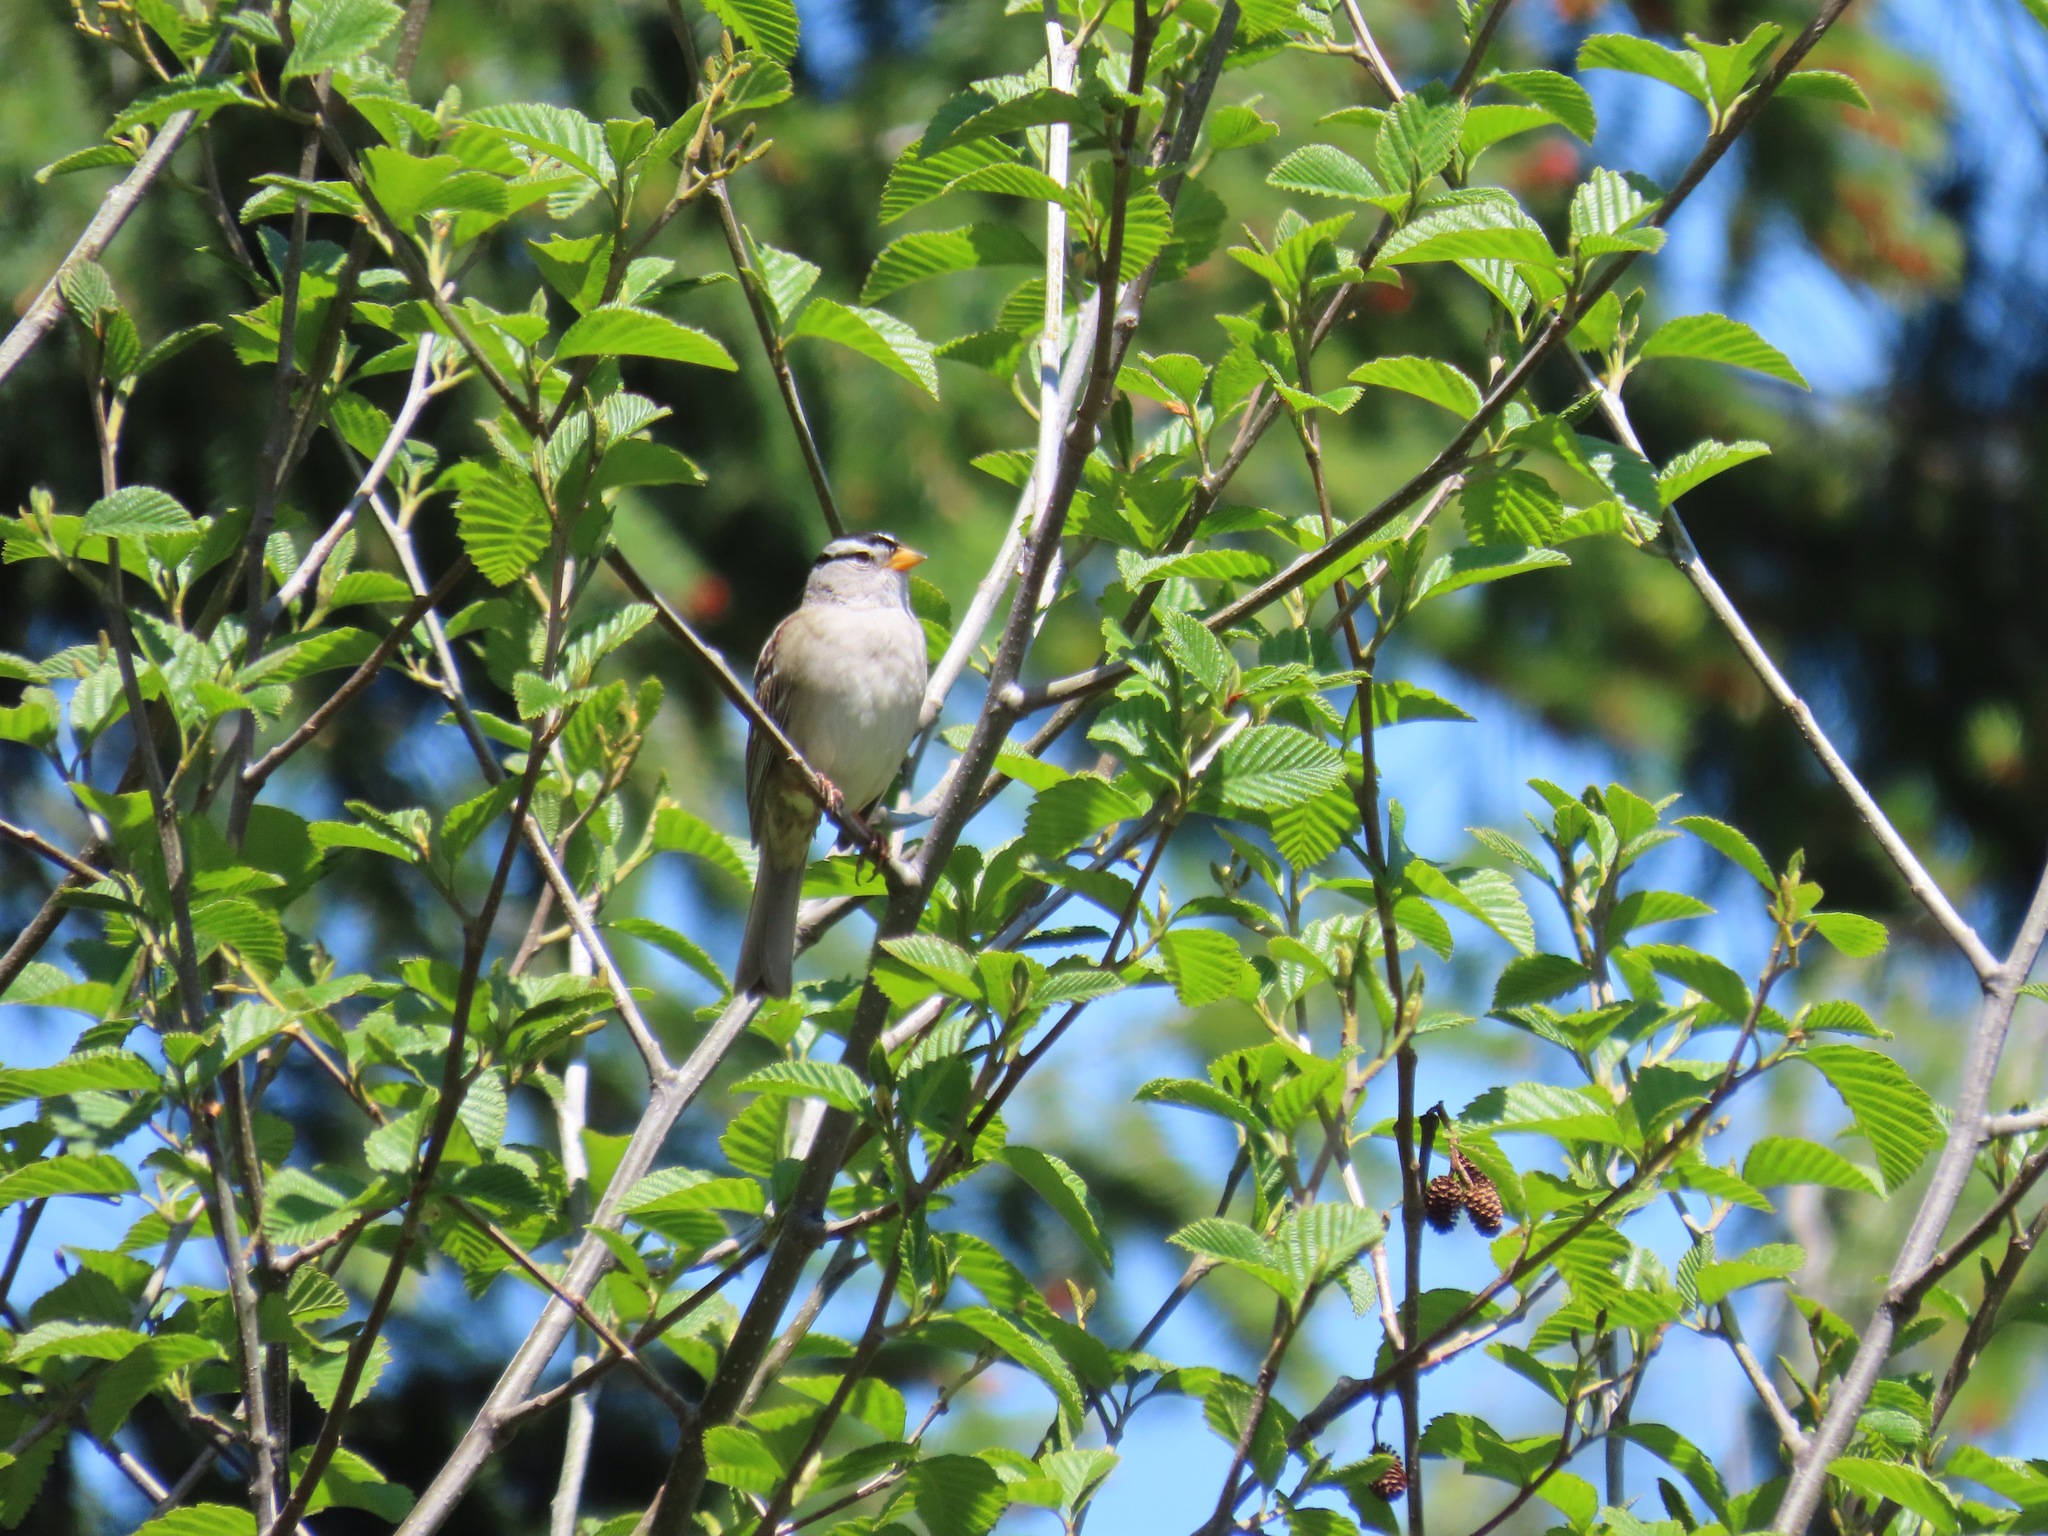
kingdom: Animalia
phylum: Chordata
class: Aves
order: Passeriformes
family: Passerellidae
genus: Zonotrichia
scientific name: Zonotrichia leucophrys
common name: White-crowned sparrow
